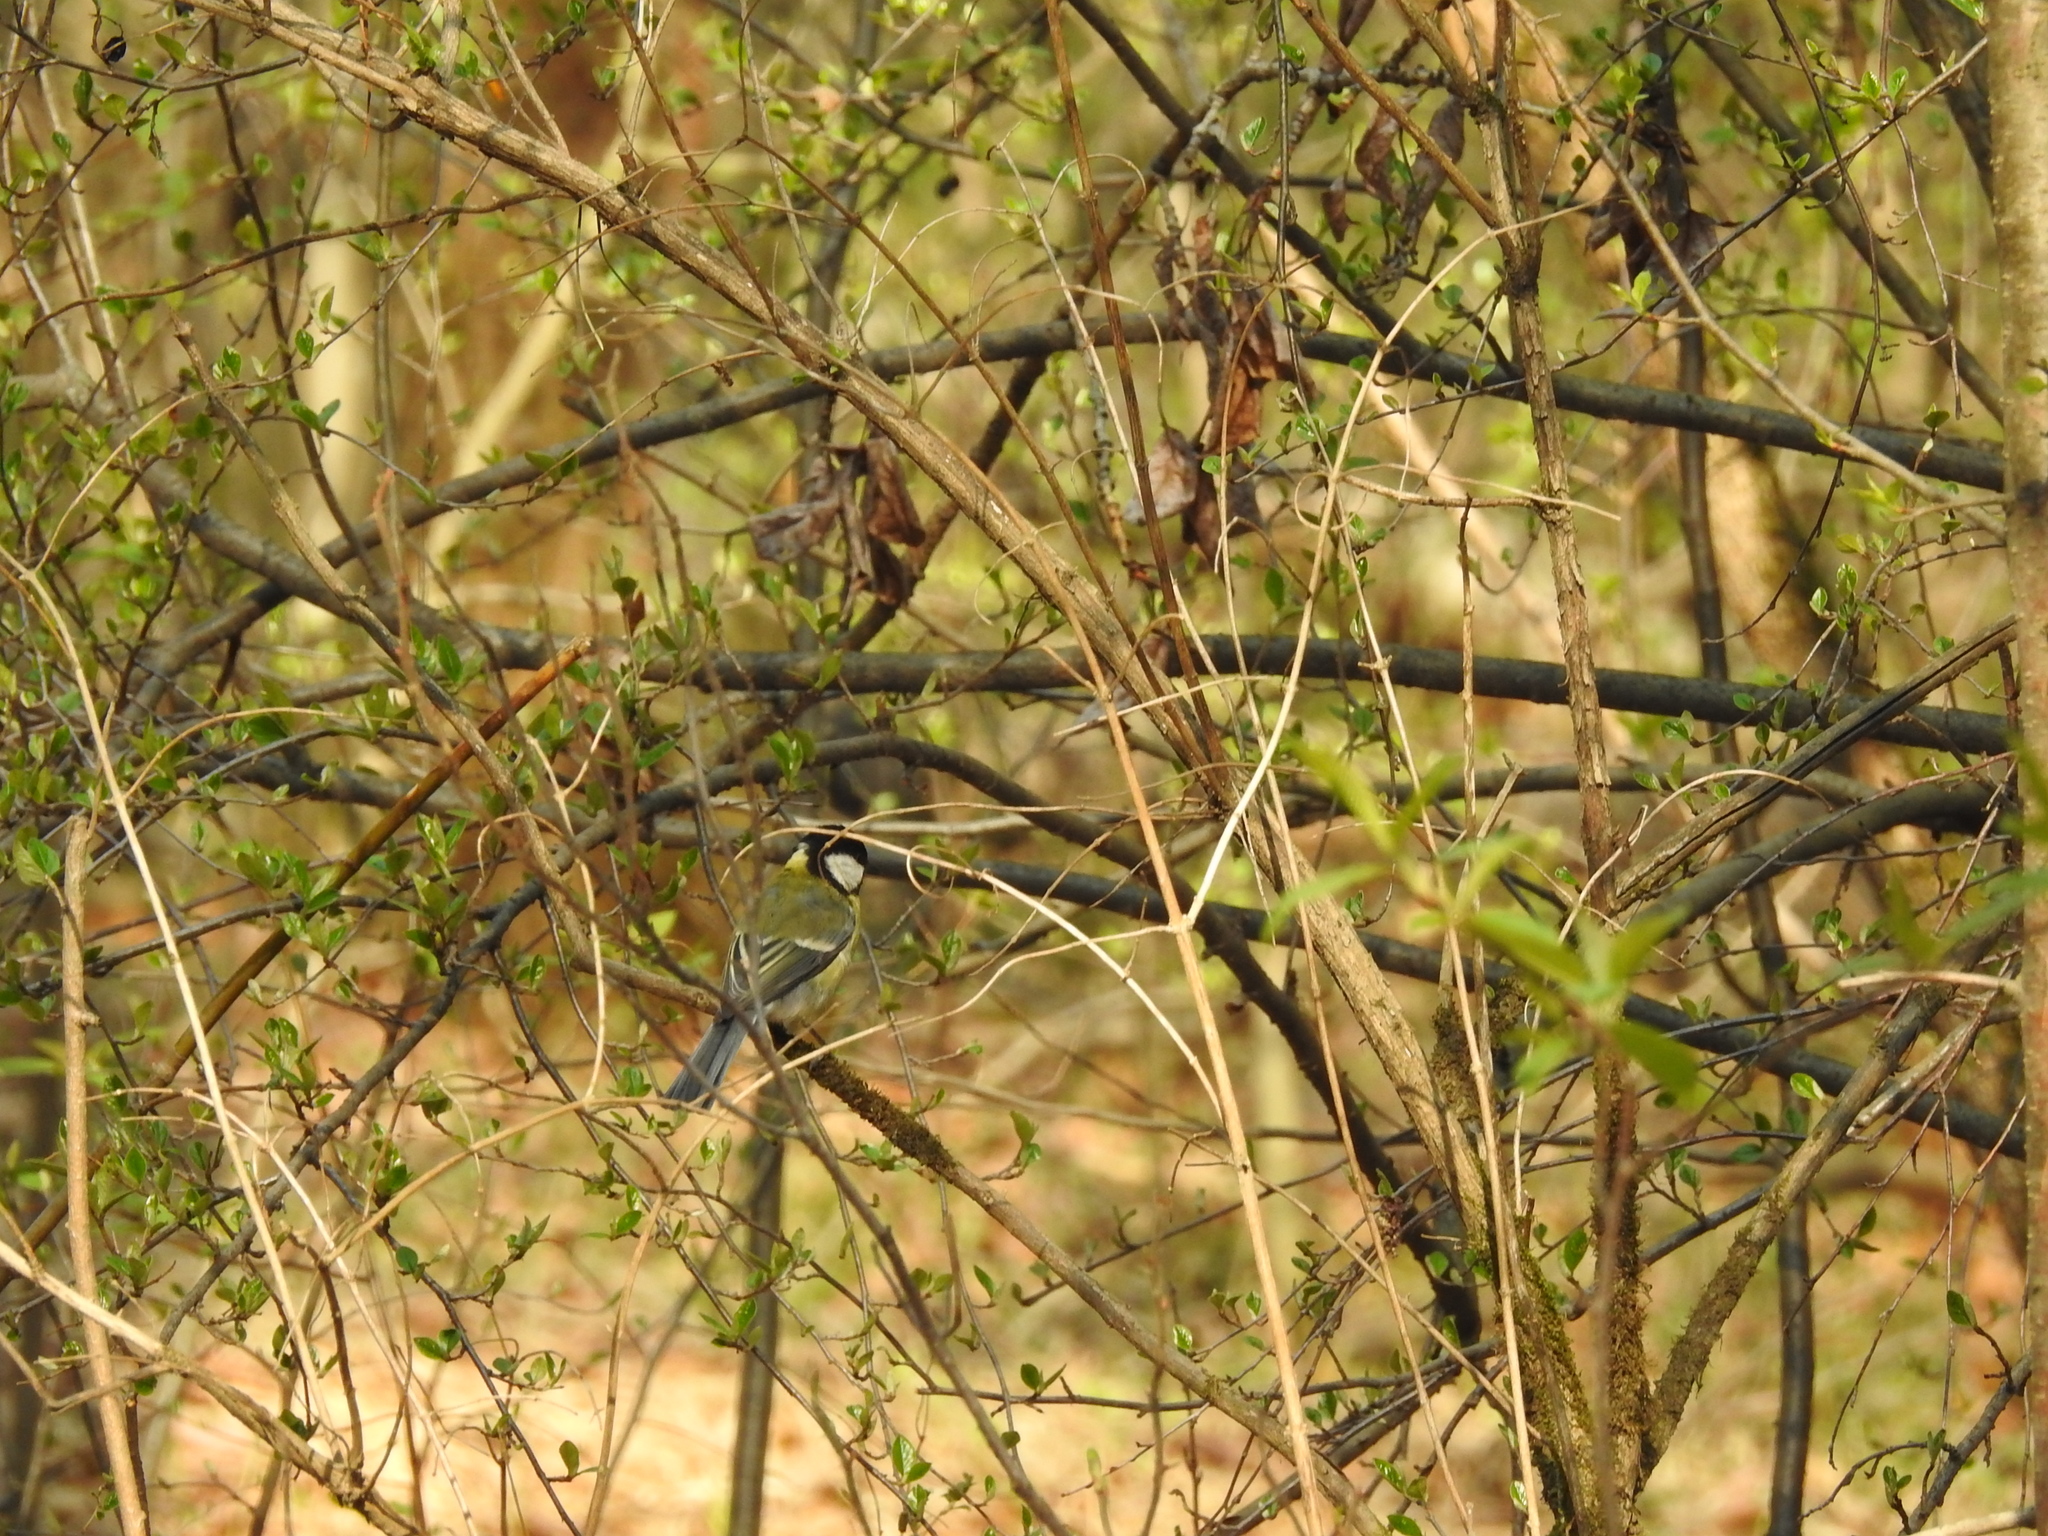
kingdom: Animalia
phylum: Chordata
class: Aves
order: Passeriformes
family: Paridae
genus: Parus
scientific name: Parus major
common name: Great tit
